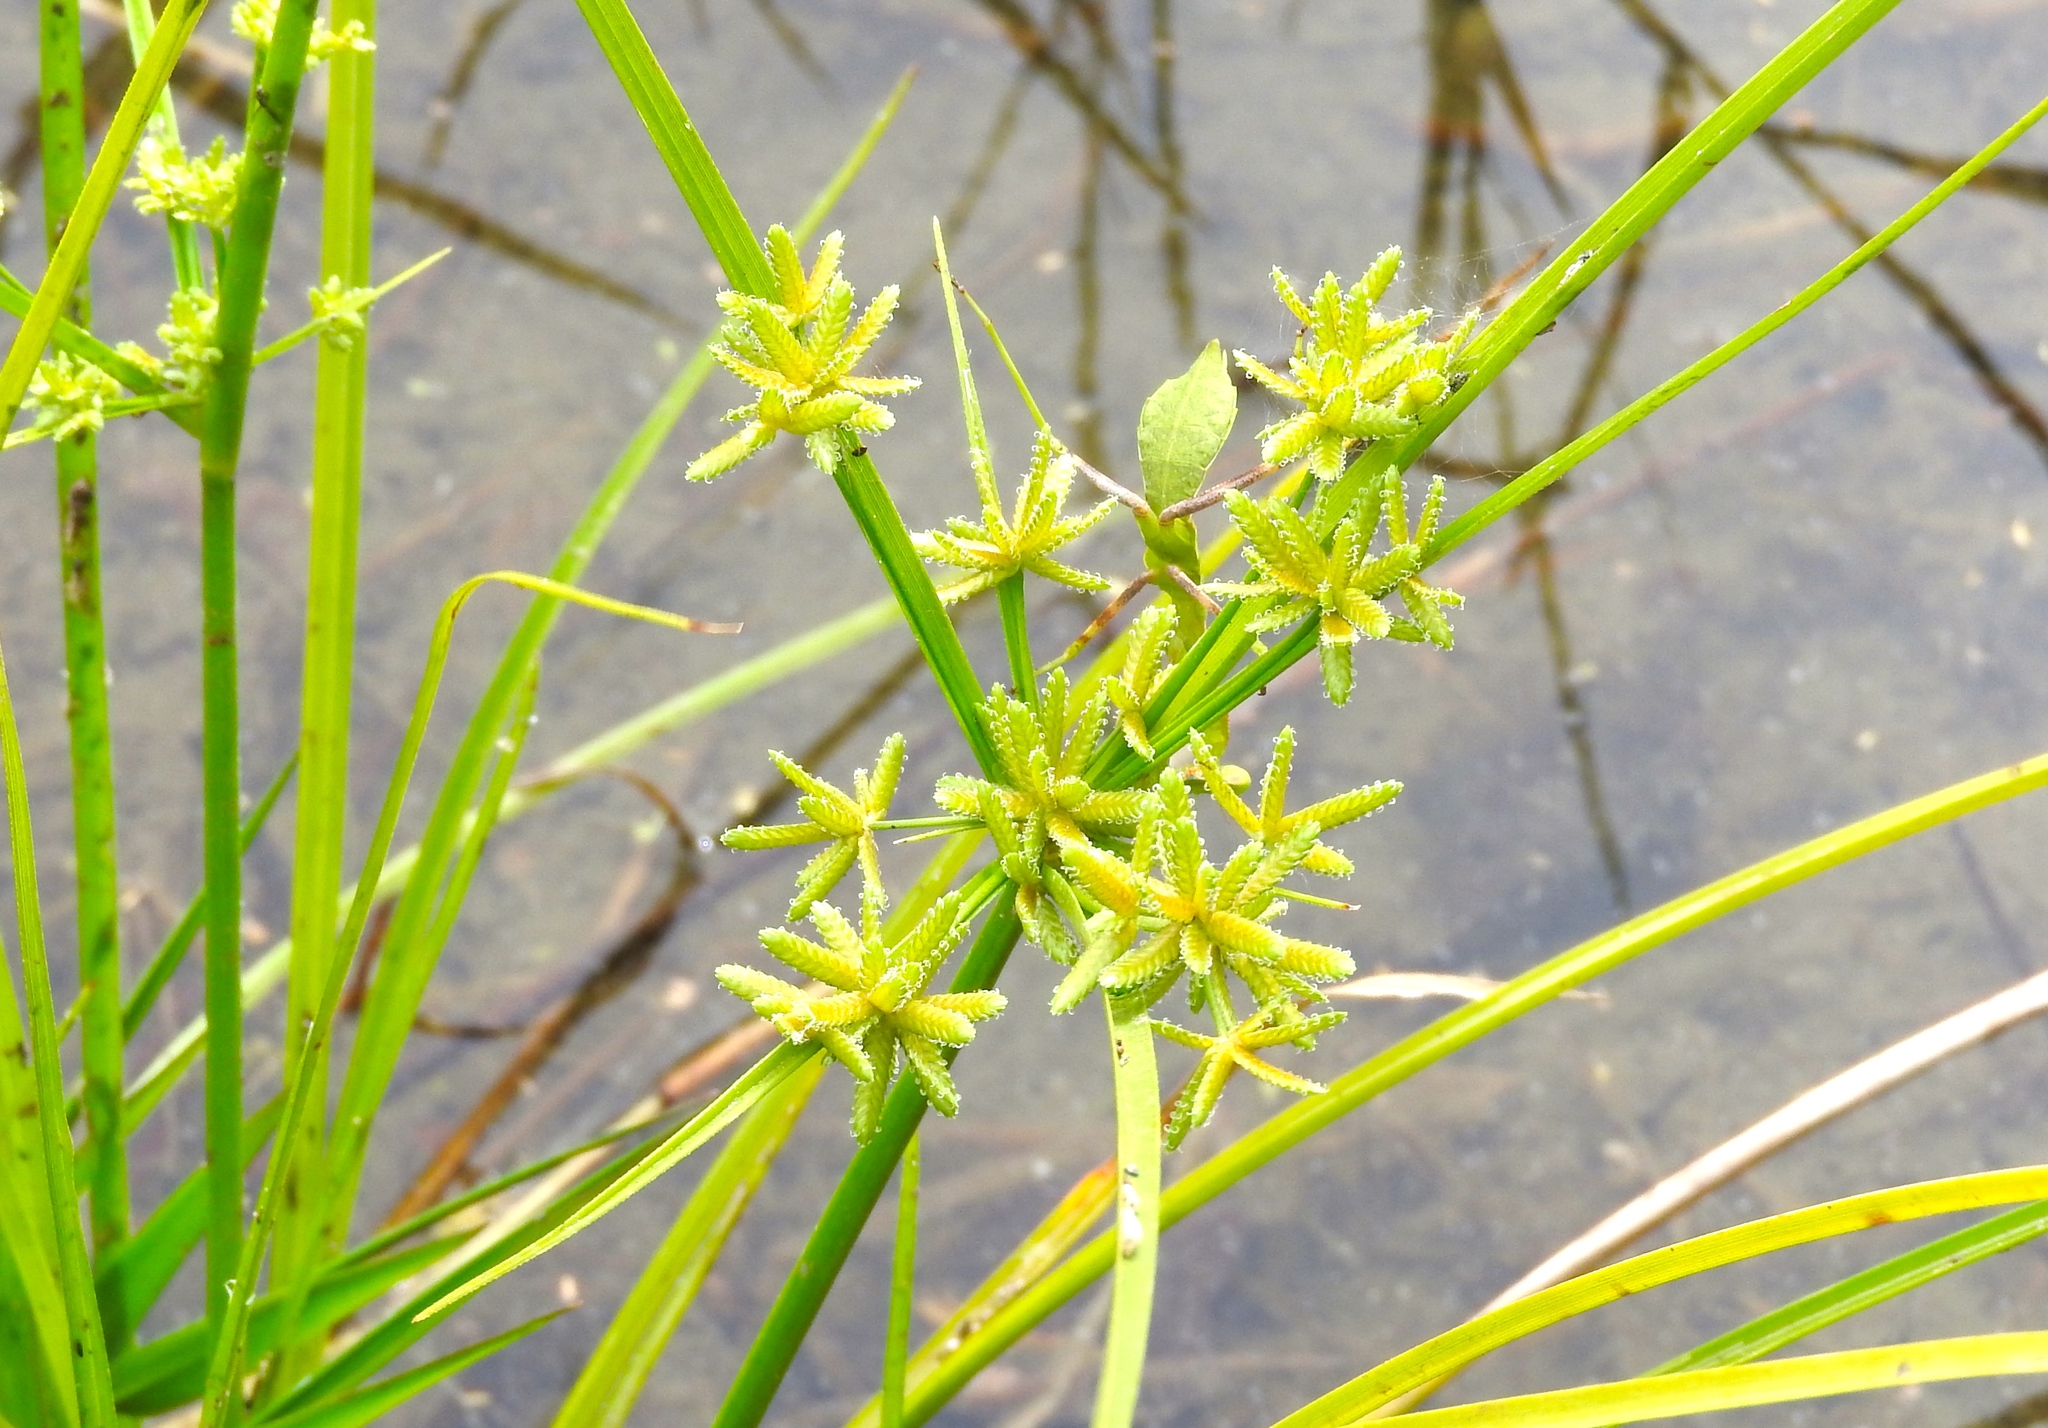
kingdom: Plantae
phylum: Tracheophyta
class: Liliopsida
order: Poales
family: Cyperaceae
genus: Cyperus
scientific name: Cyperus
